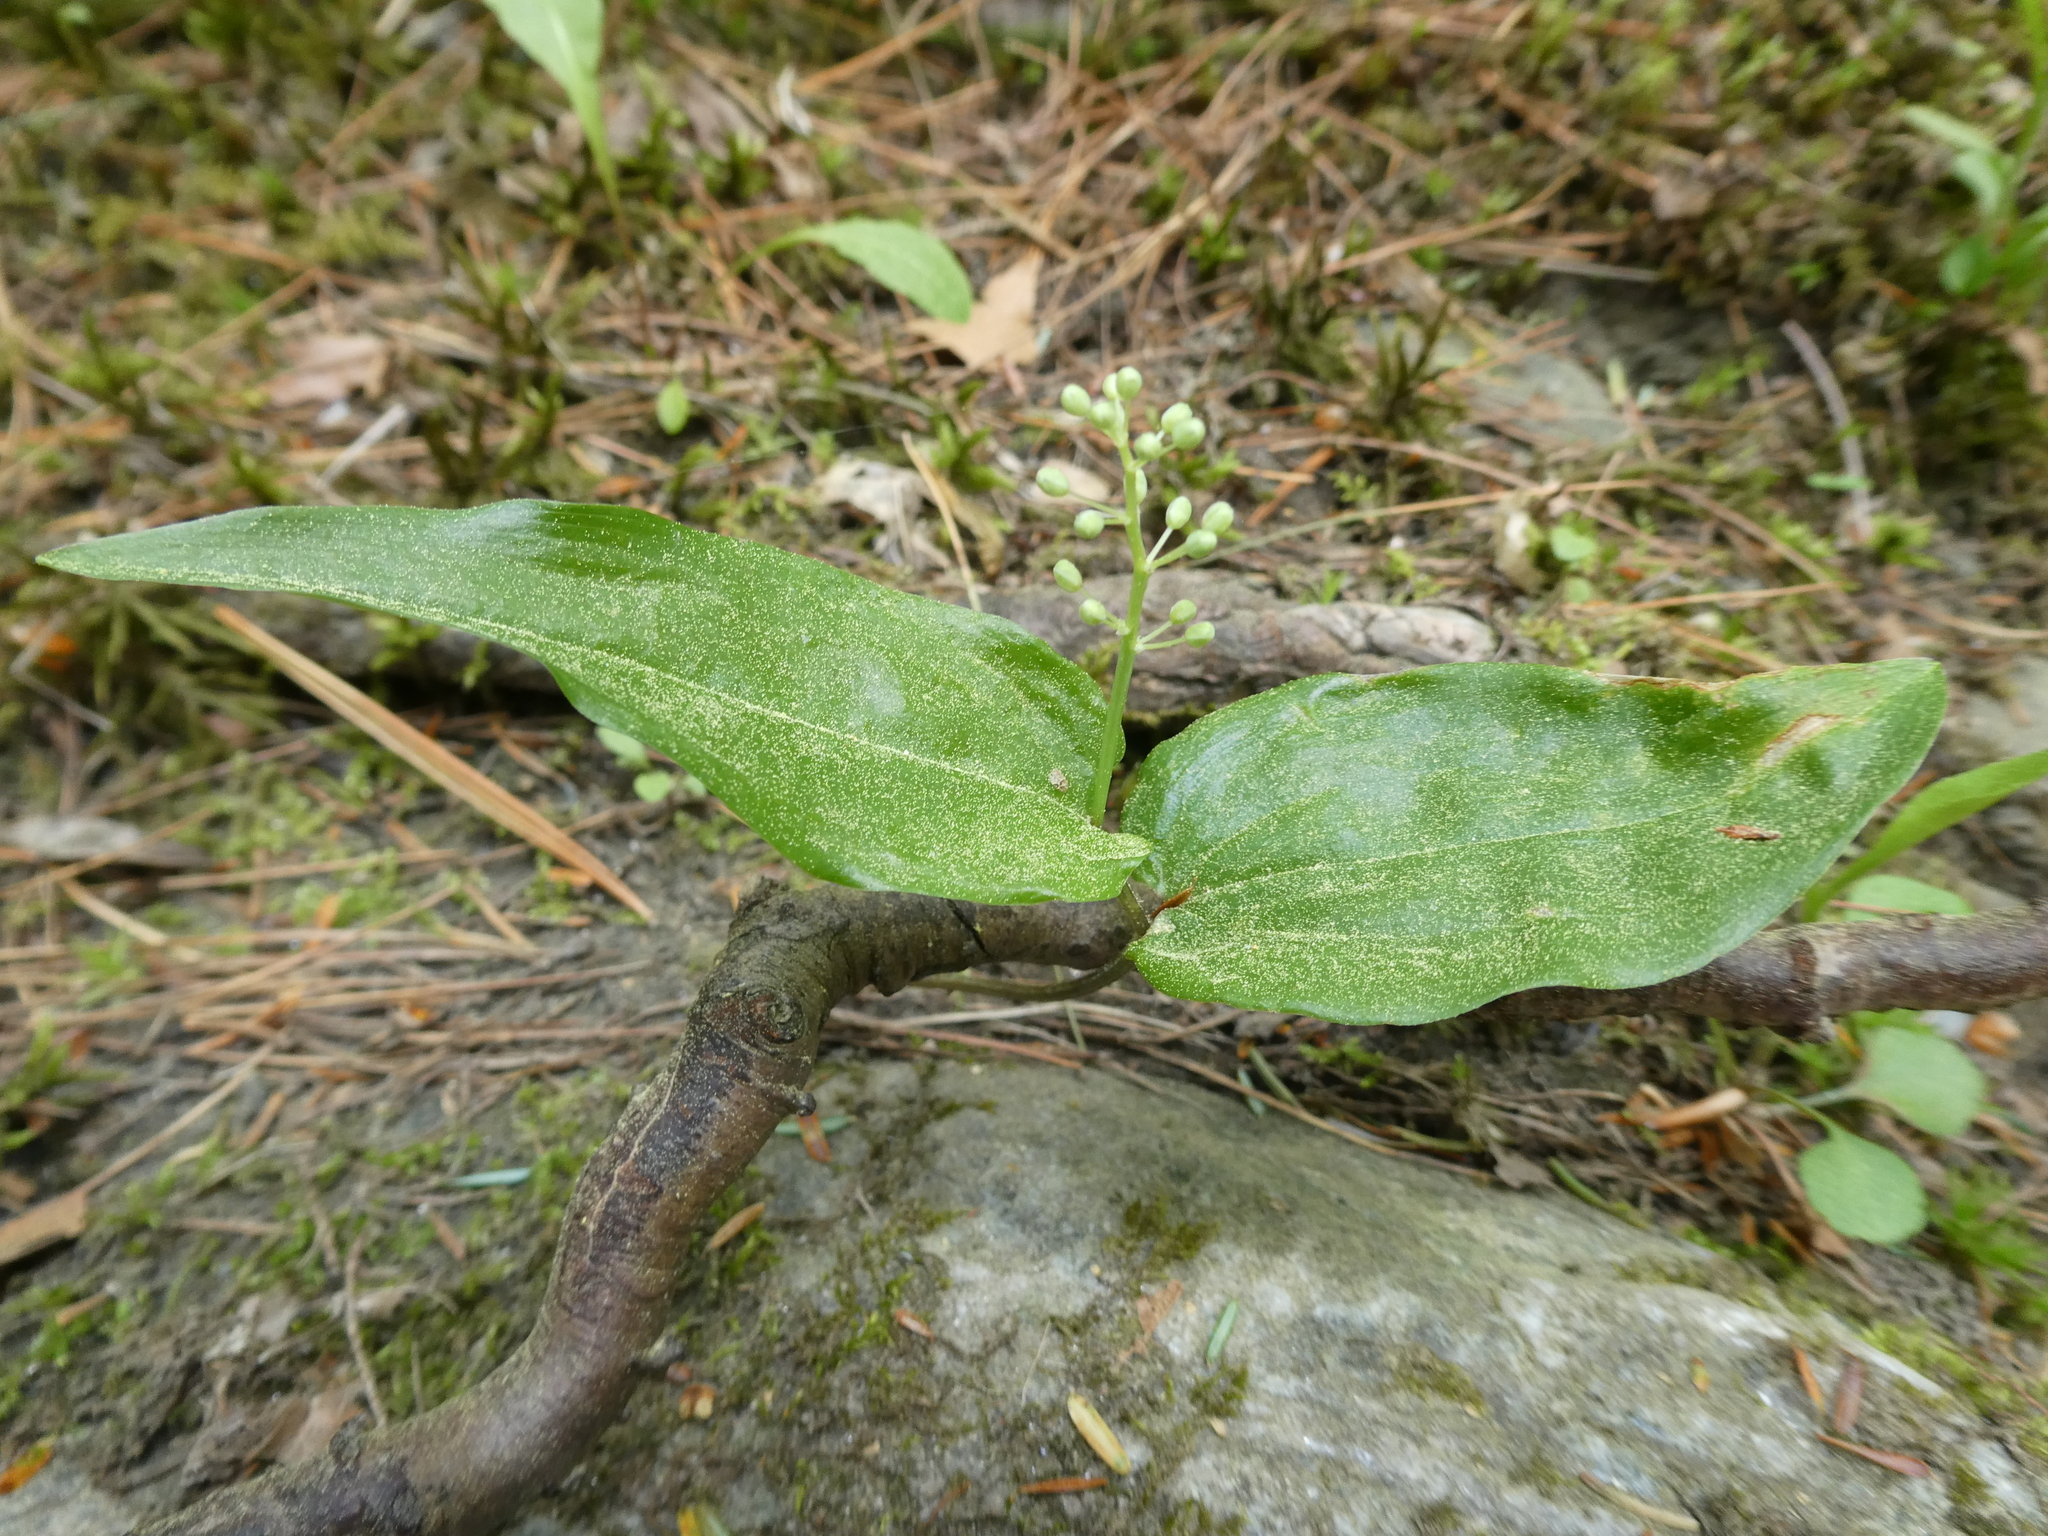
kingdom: Plantae
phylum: Tracheophyta
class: Liliopsida
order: Asparagales
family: Asparagaceae
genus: Maianthemum
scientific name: Maianthemum canadense
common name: False lily-of-the-valley
